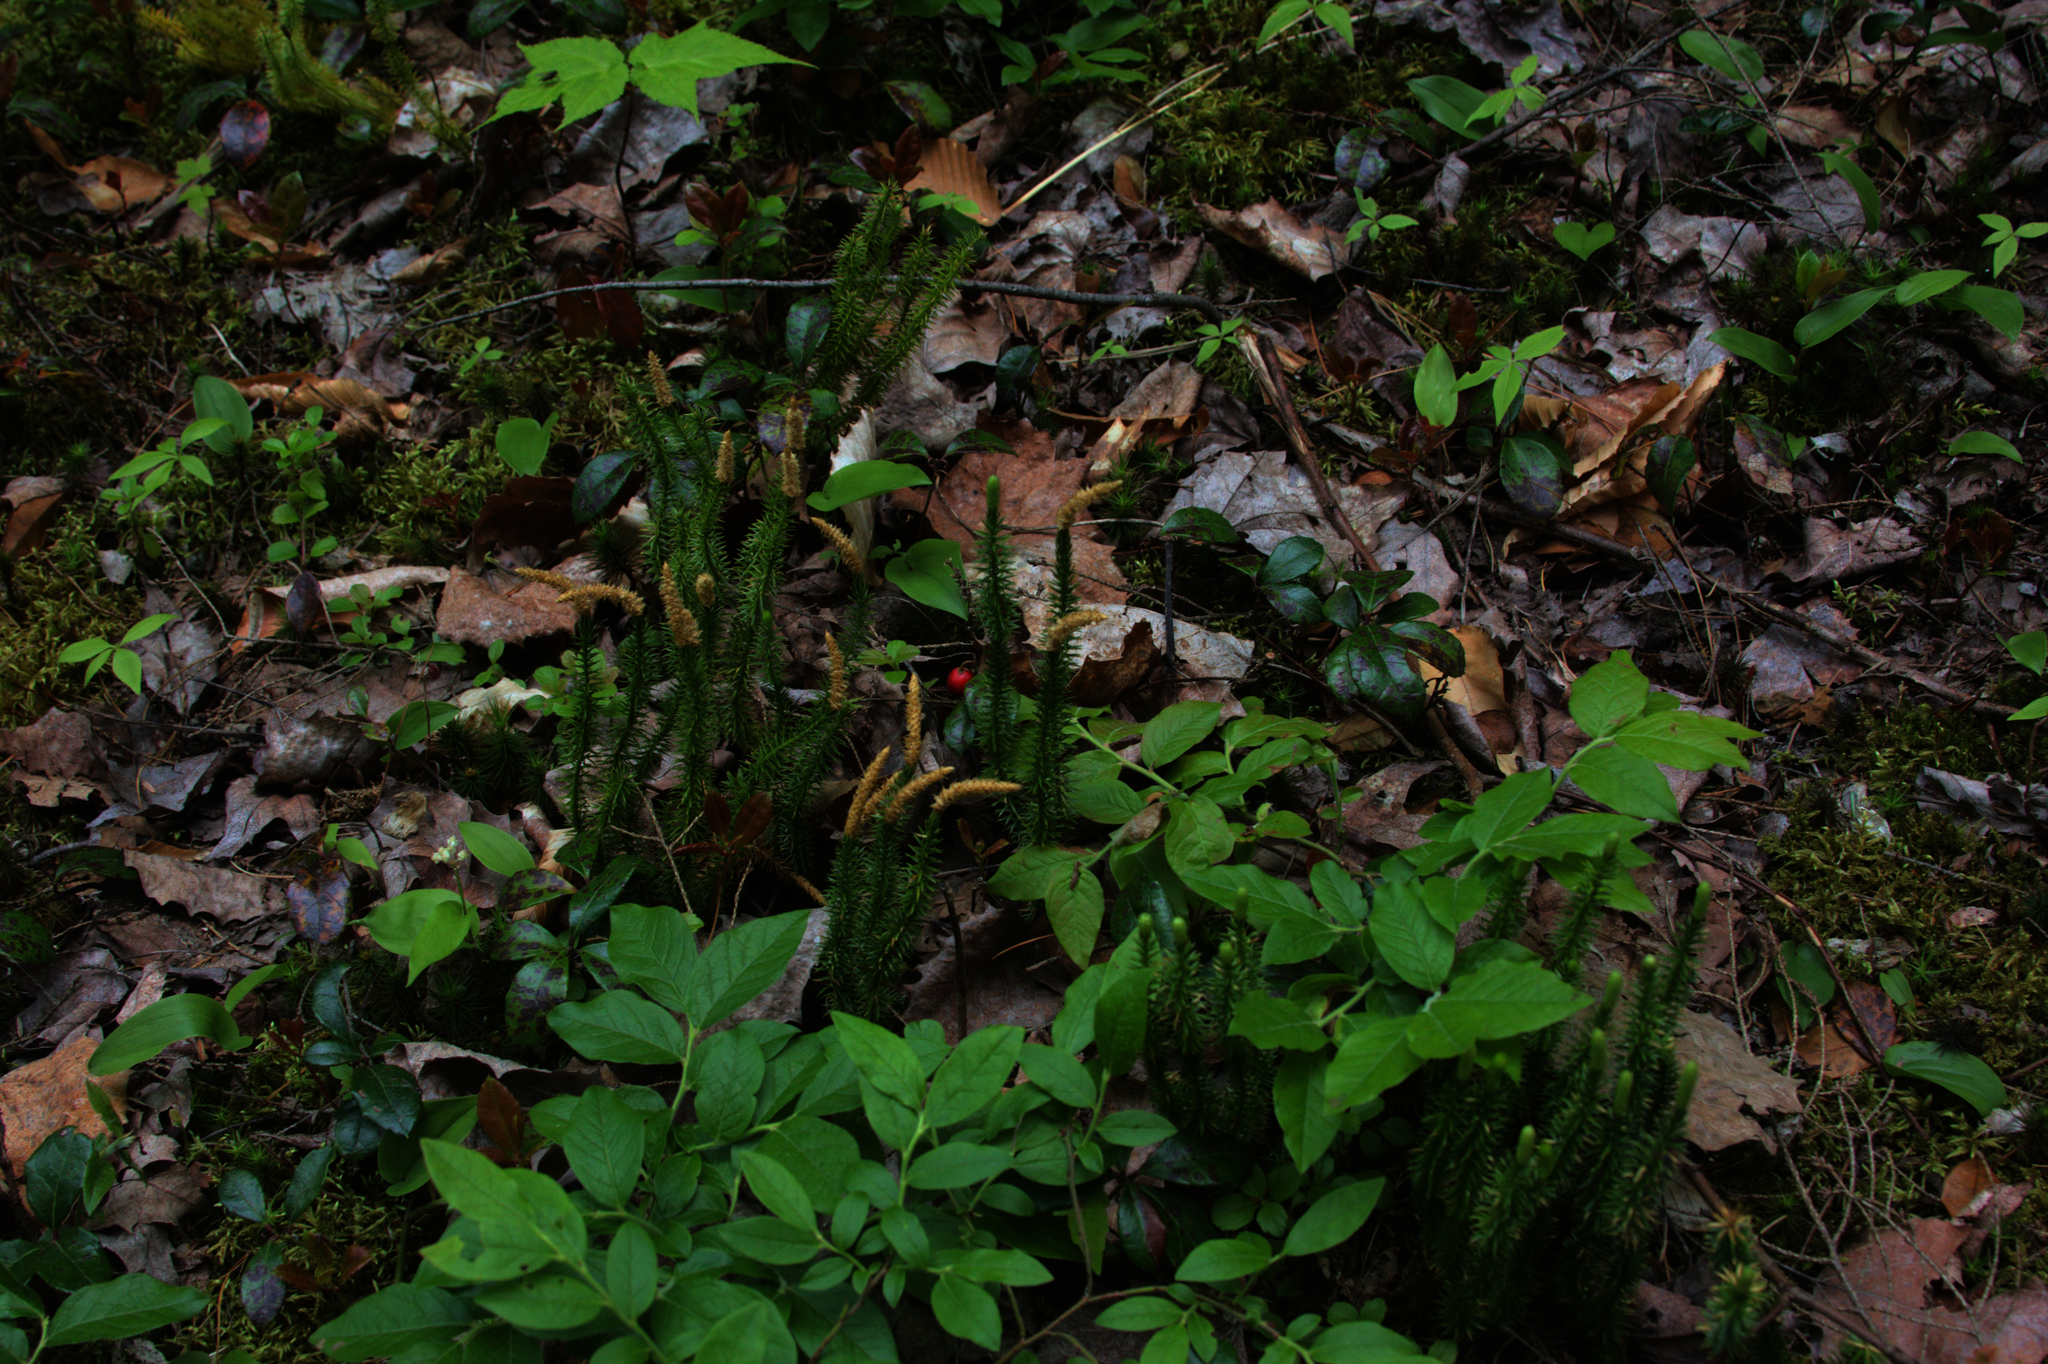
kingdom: Plantae
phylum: Tracheophyta
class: Lycopodiopsida
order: Lycopodiales
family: Lycopodiaceae
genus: Spinulum
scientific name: Spinulum annotinum
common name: Interrupted club-moss
